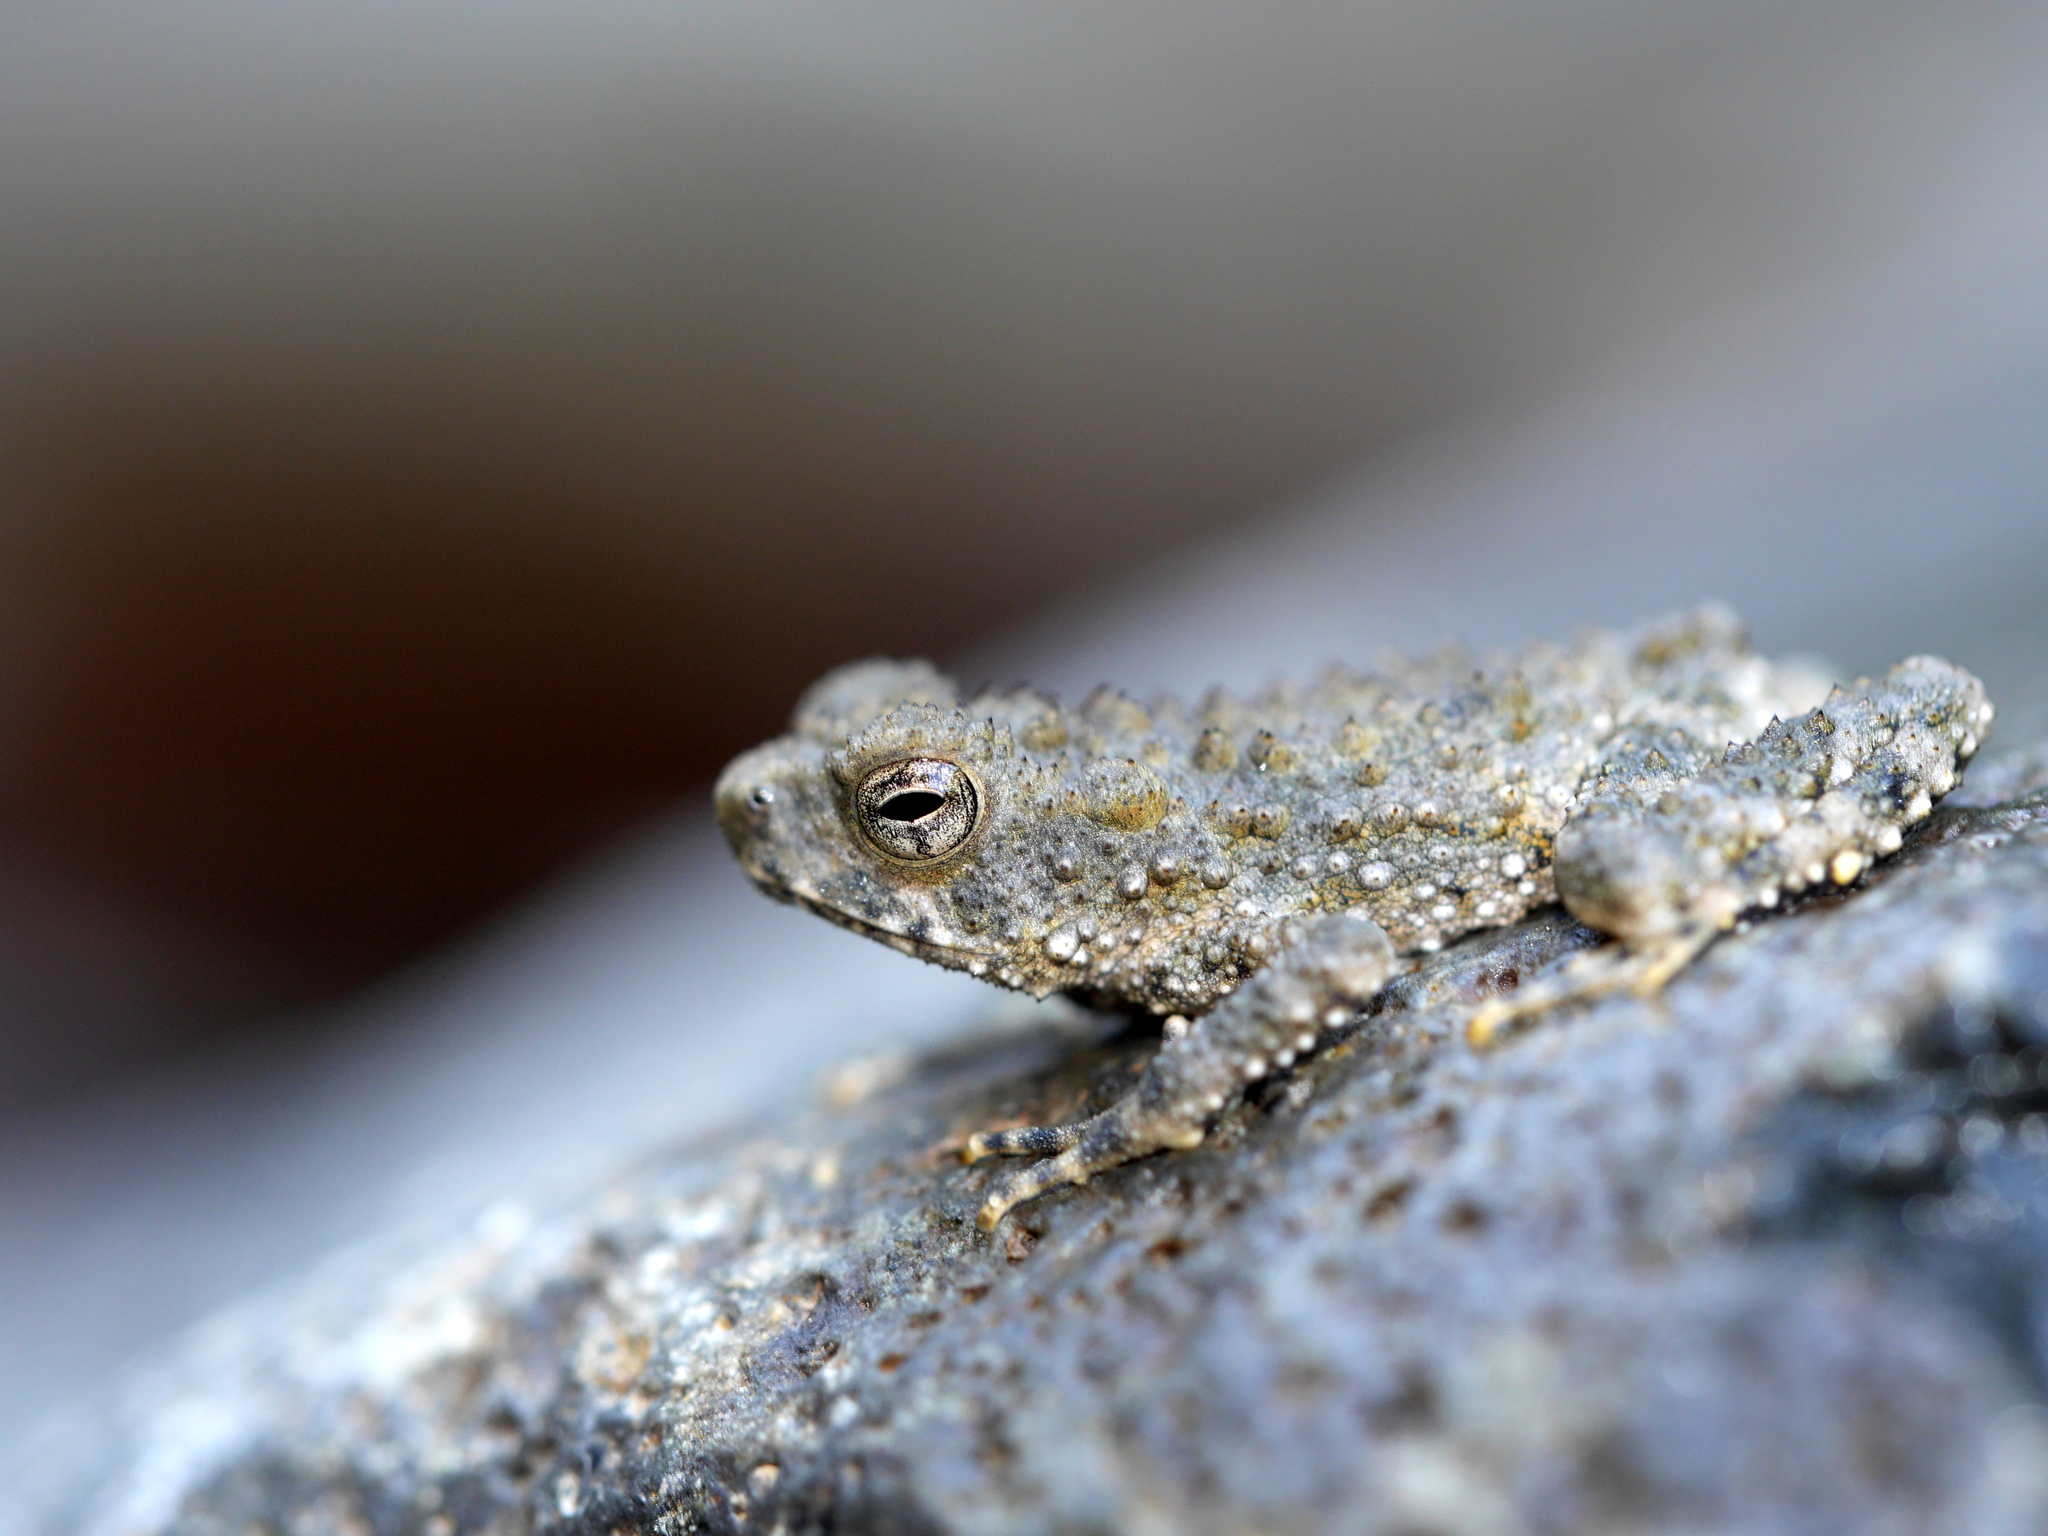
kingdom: Animalia
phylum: Chordata
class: Amphibia
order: Anura
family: Bufonidae
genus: Phrynoidis
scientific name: Phrynoidis asper
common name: Asian giant toad
